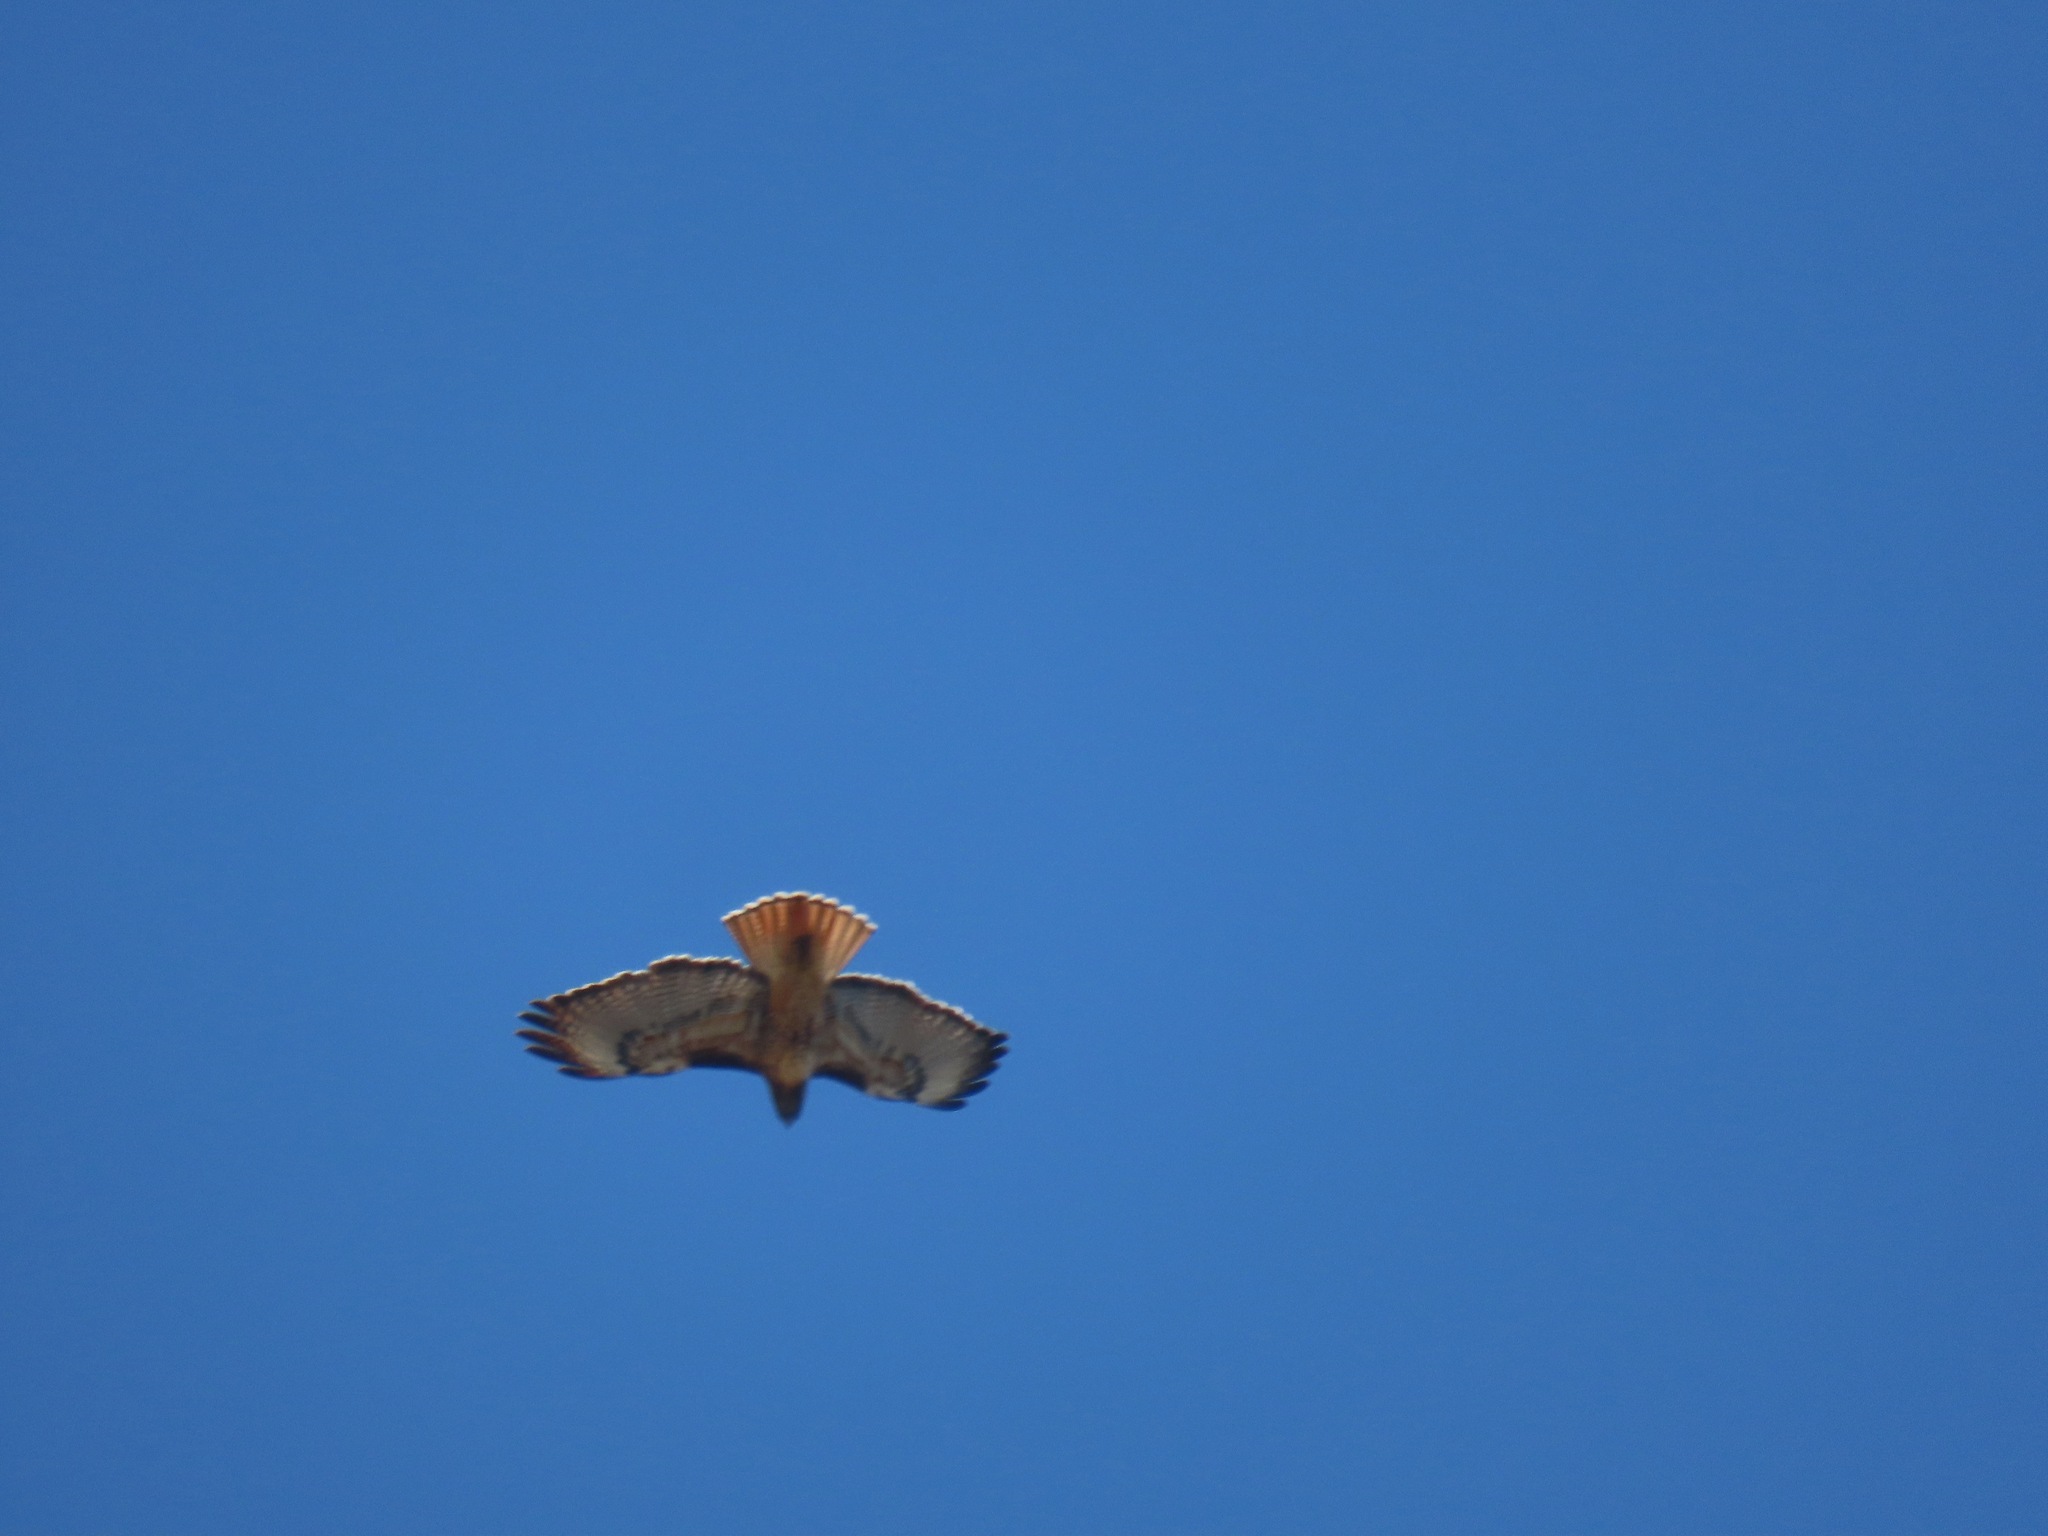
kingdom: Animalia
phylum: Chordata
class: Aves
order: Accipitriformes
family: Accipitridae
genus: Buteo
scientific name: Buteo jamaicensis
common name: Red-tailed hawk
